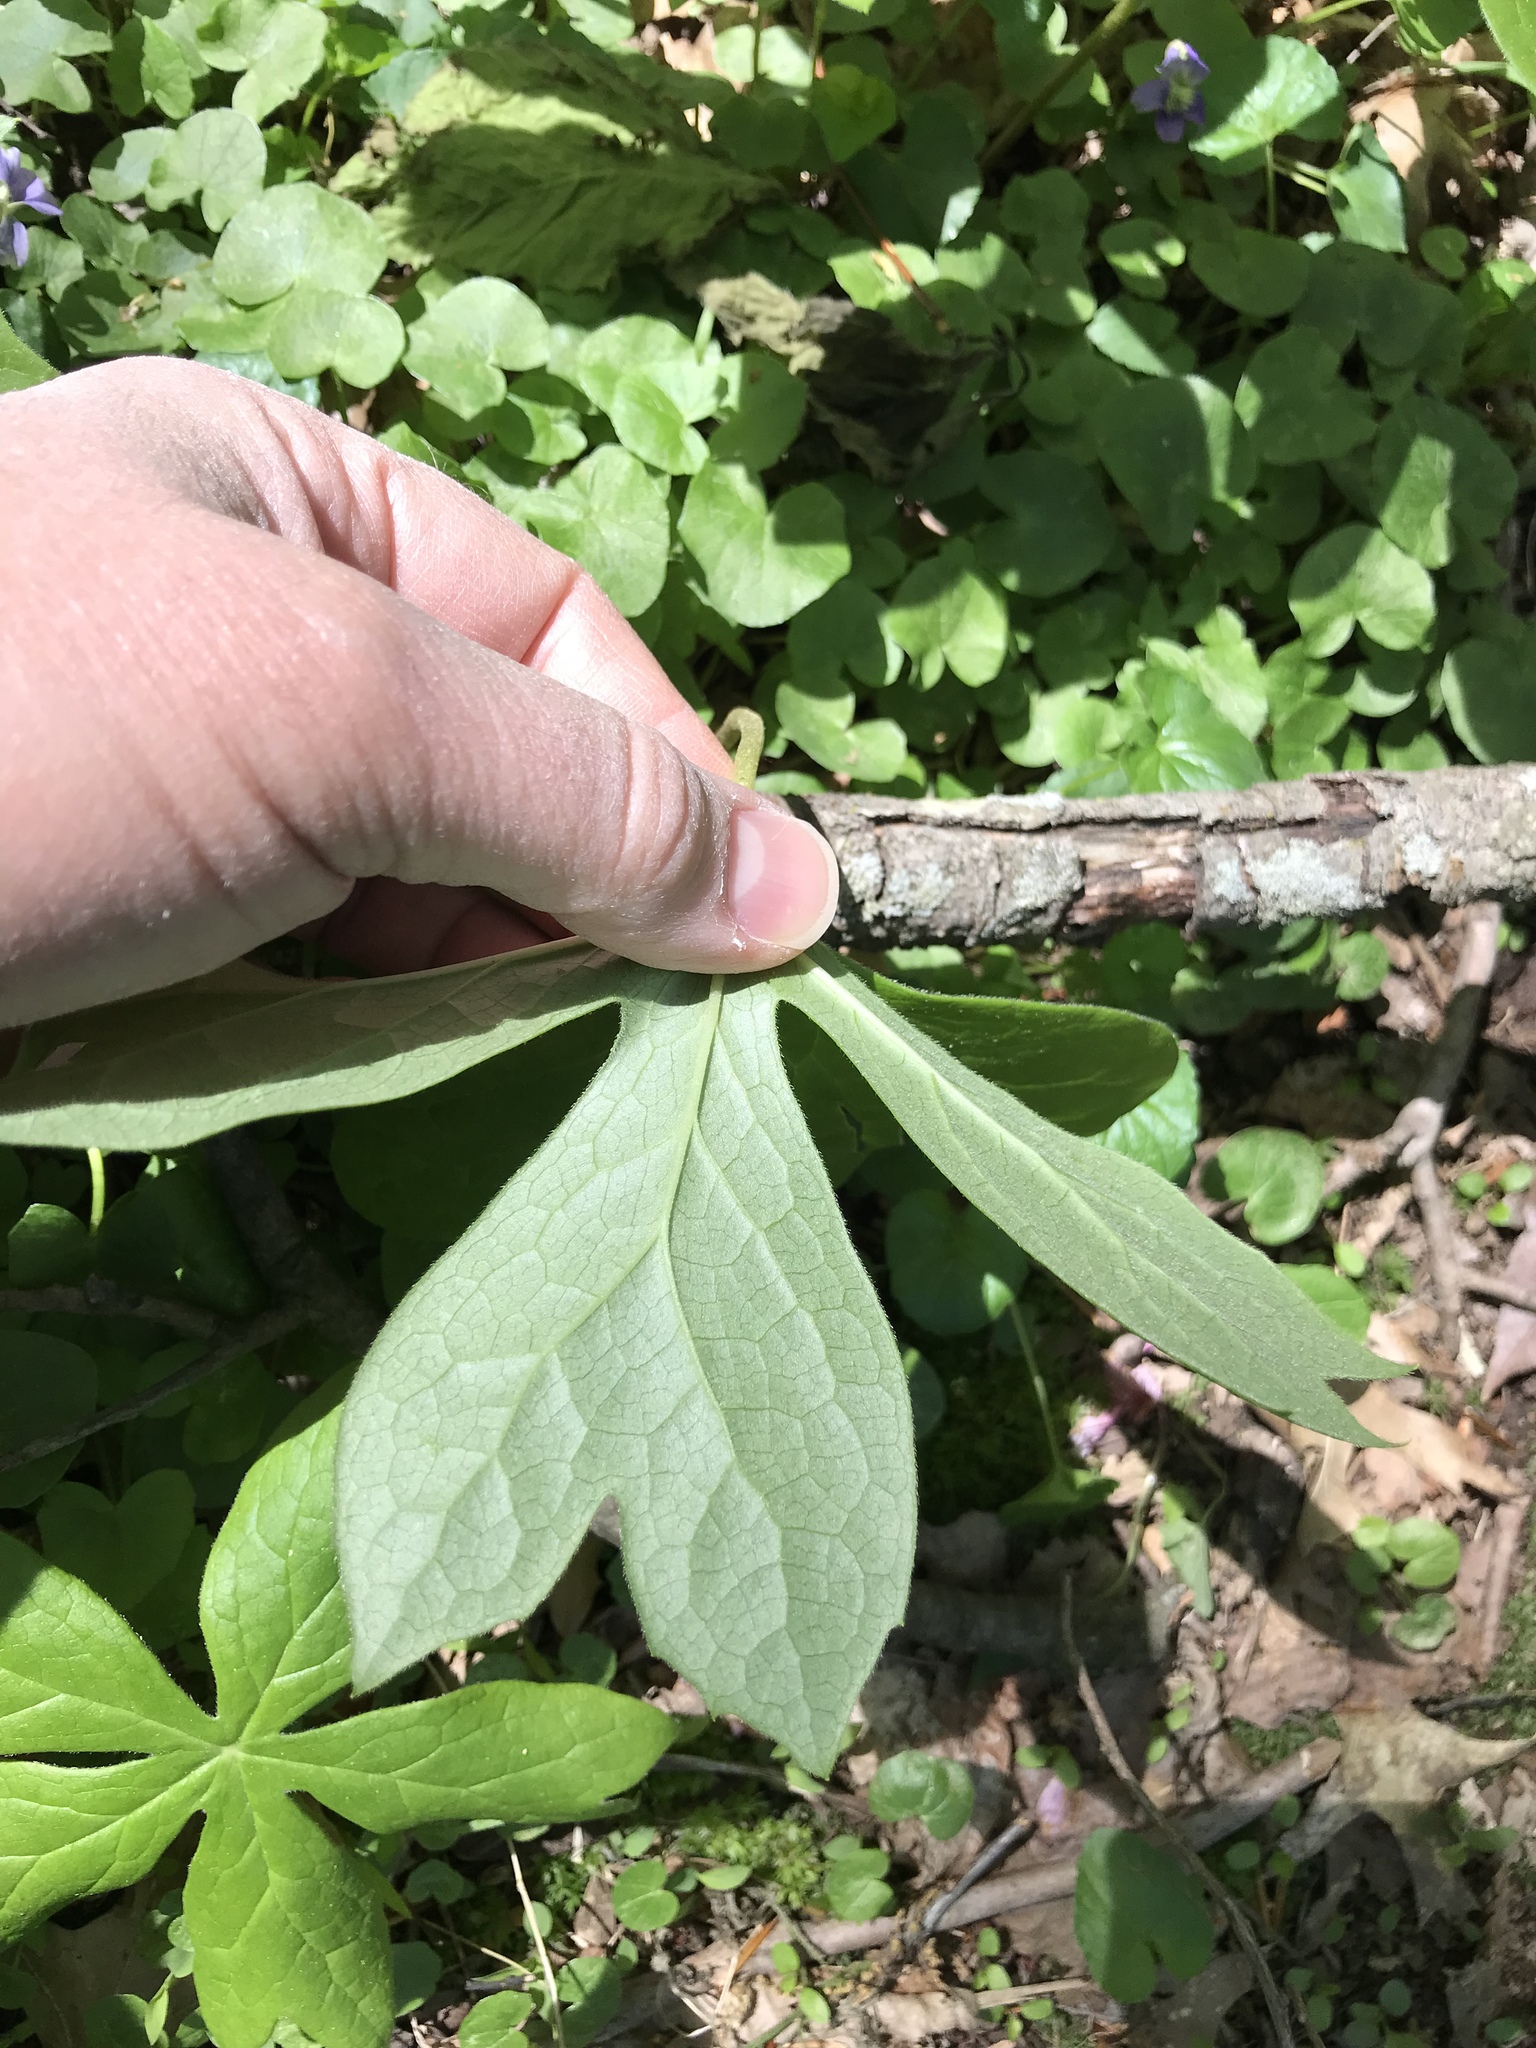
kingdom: Plantae
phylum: Tracheophyta
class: Magnoliopsida
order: Ranunculales
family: Berberidaceae
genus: Podophyllum
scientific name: Podophyllum peltatum
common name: Wild mandrake
